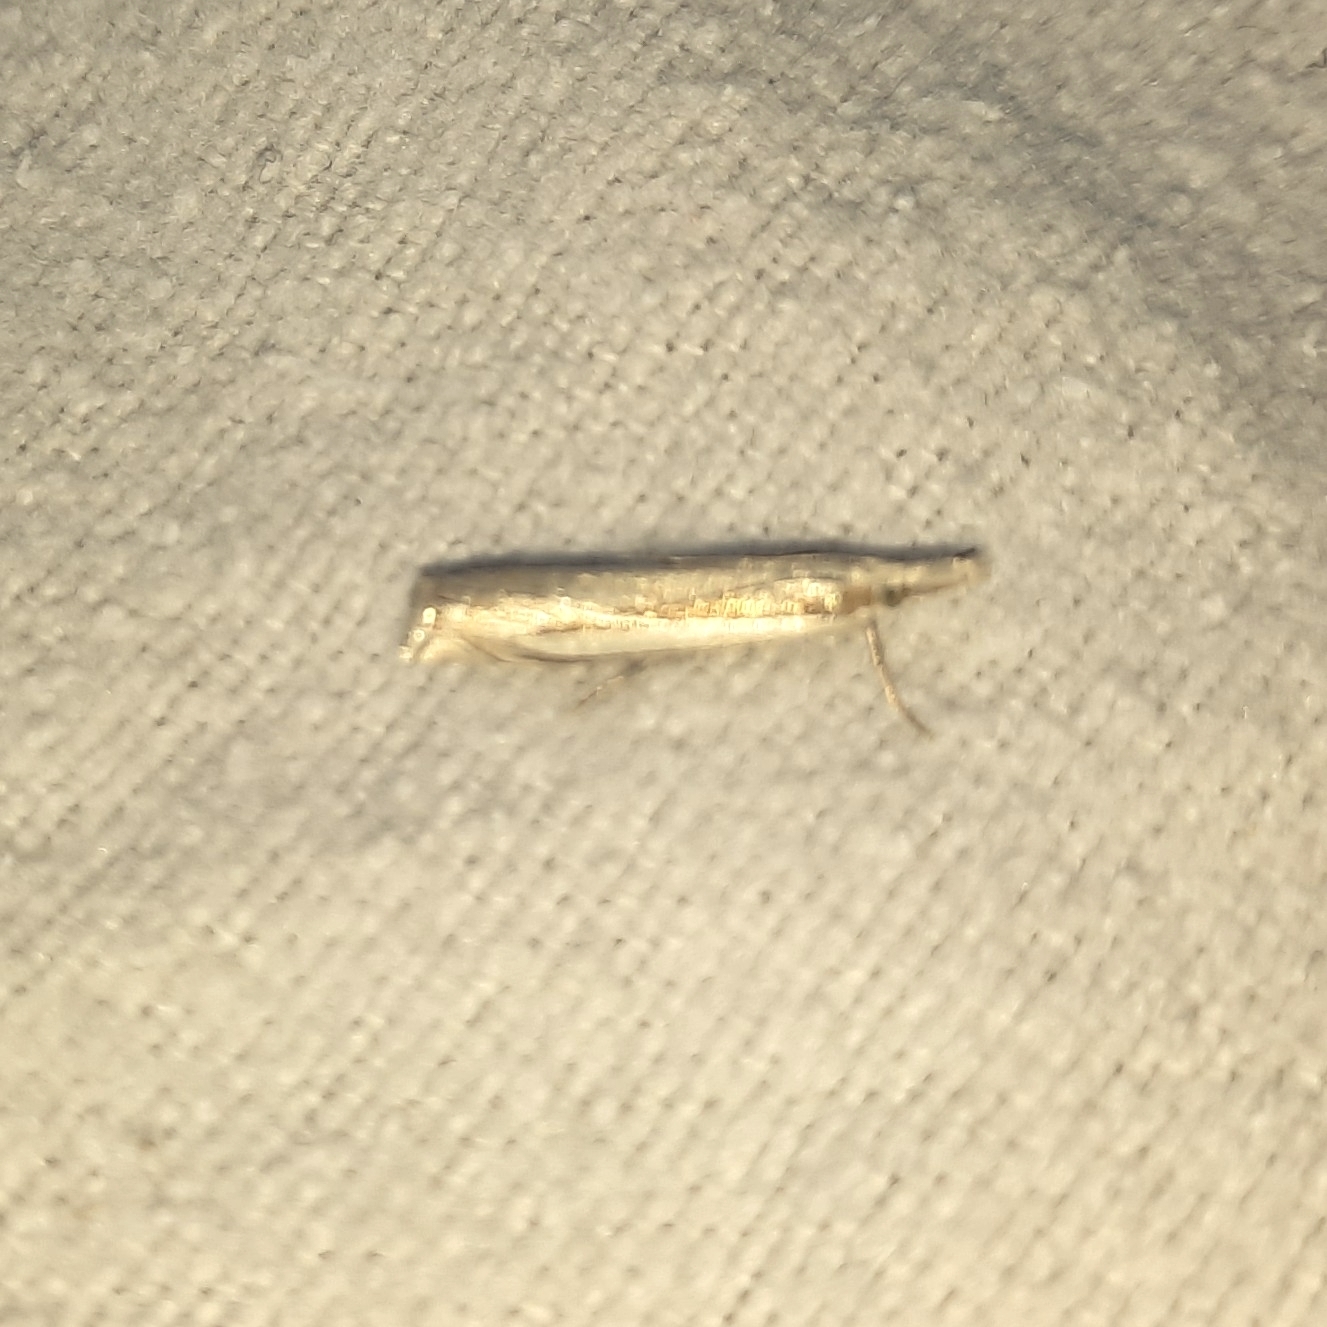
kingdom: Animalia
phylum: Arthropoda
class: Insecta
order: Lepidoptera
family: Crambidae
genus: Crambus
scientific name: Crambus pascuella
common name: Inlaid grass-veneer
